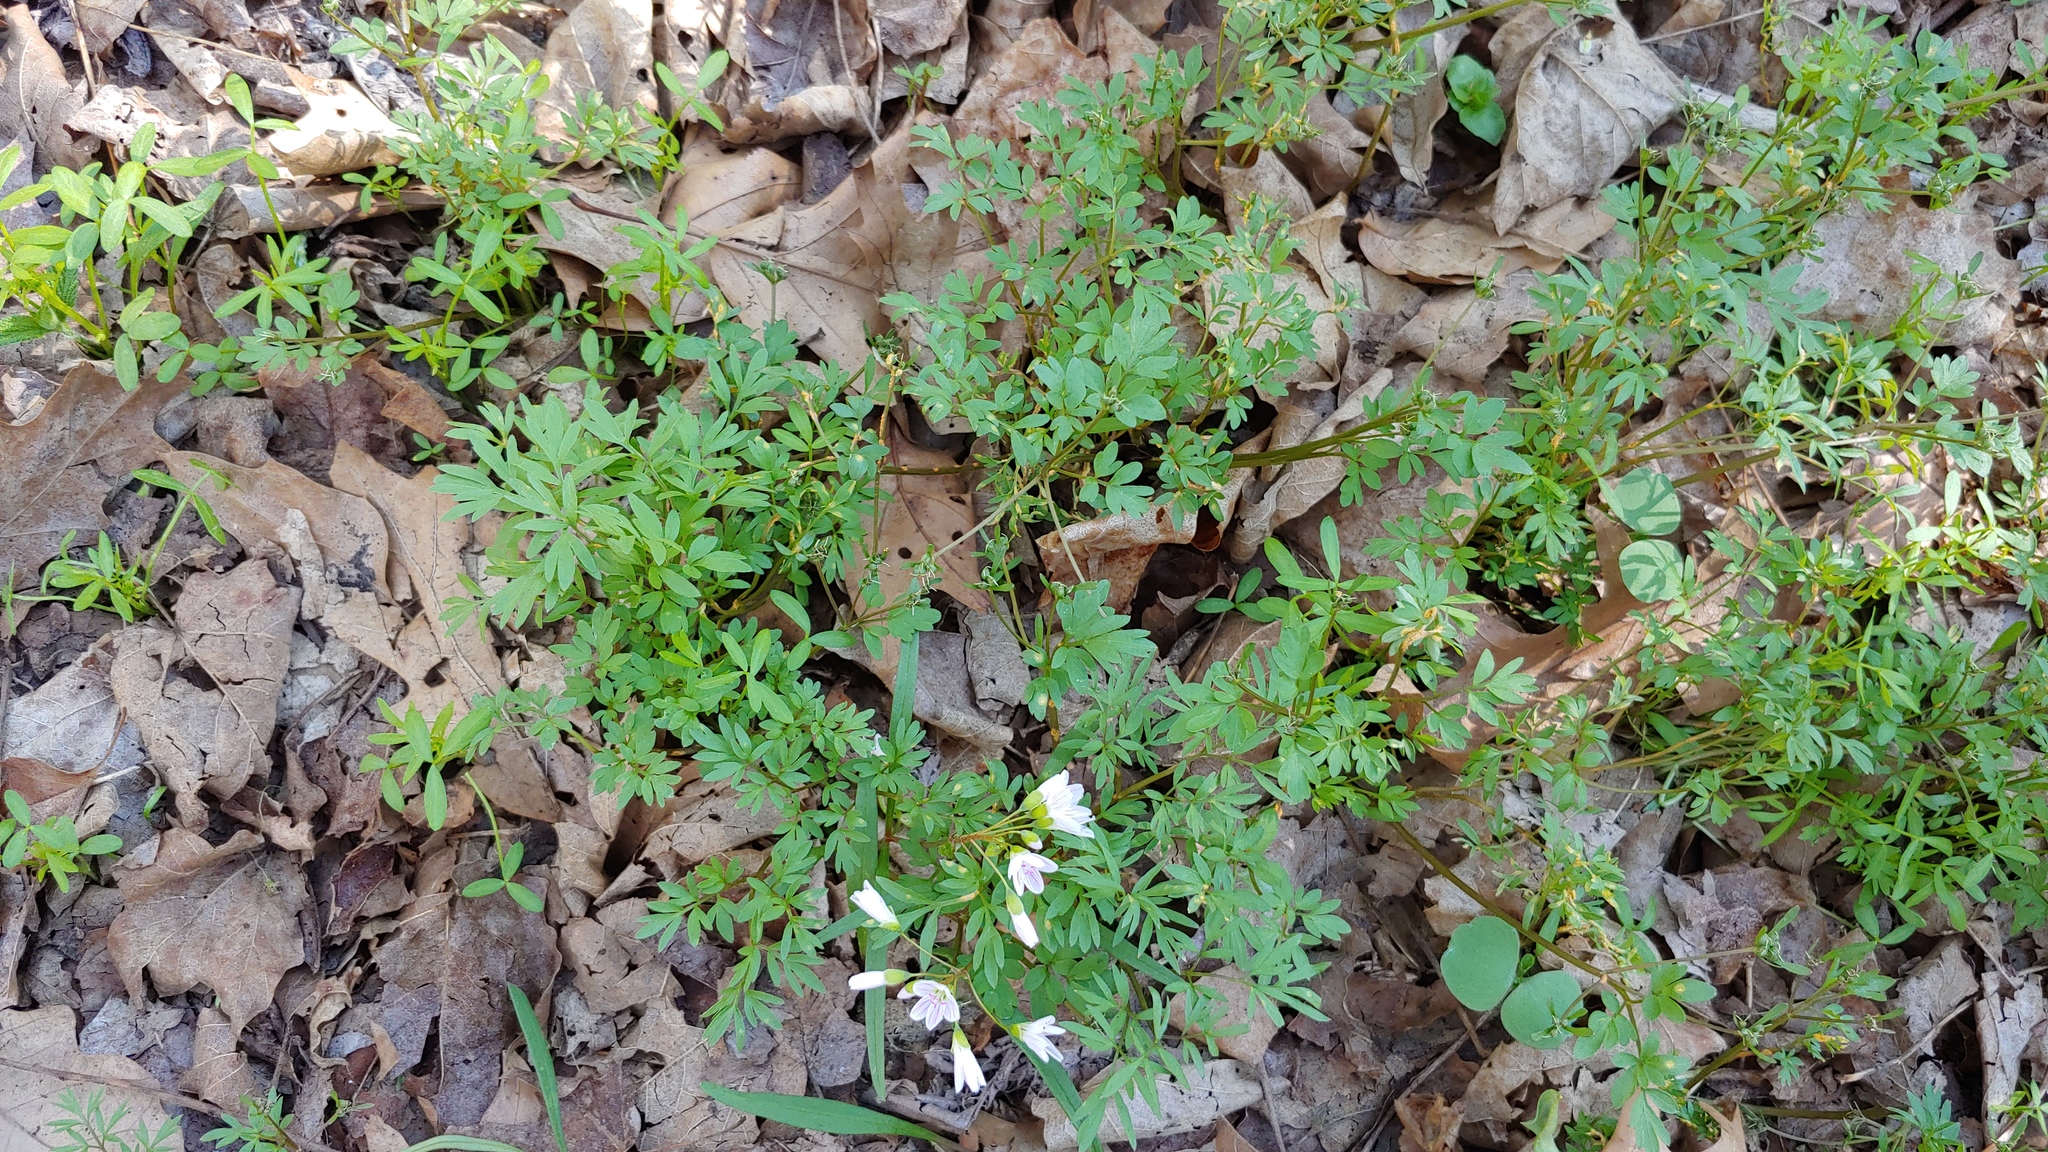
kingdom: Fungi
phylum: Basidiomycota
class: Pucciniomycetes
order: Pucciniales
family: Pucciniaceae
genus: Puccinia
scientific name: Puccinia erigeniae
